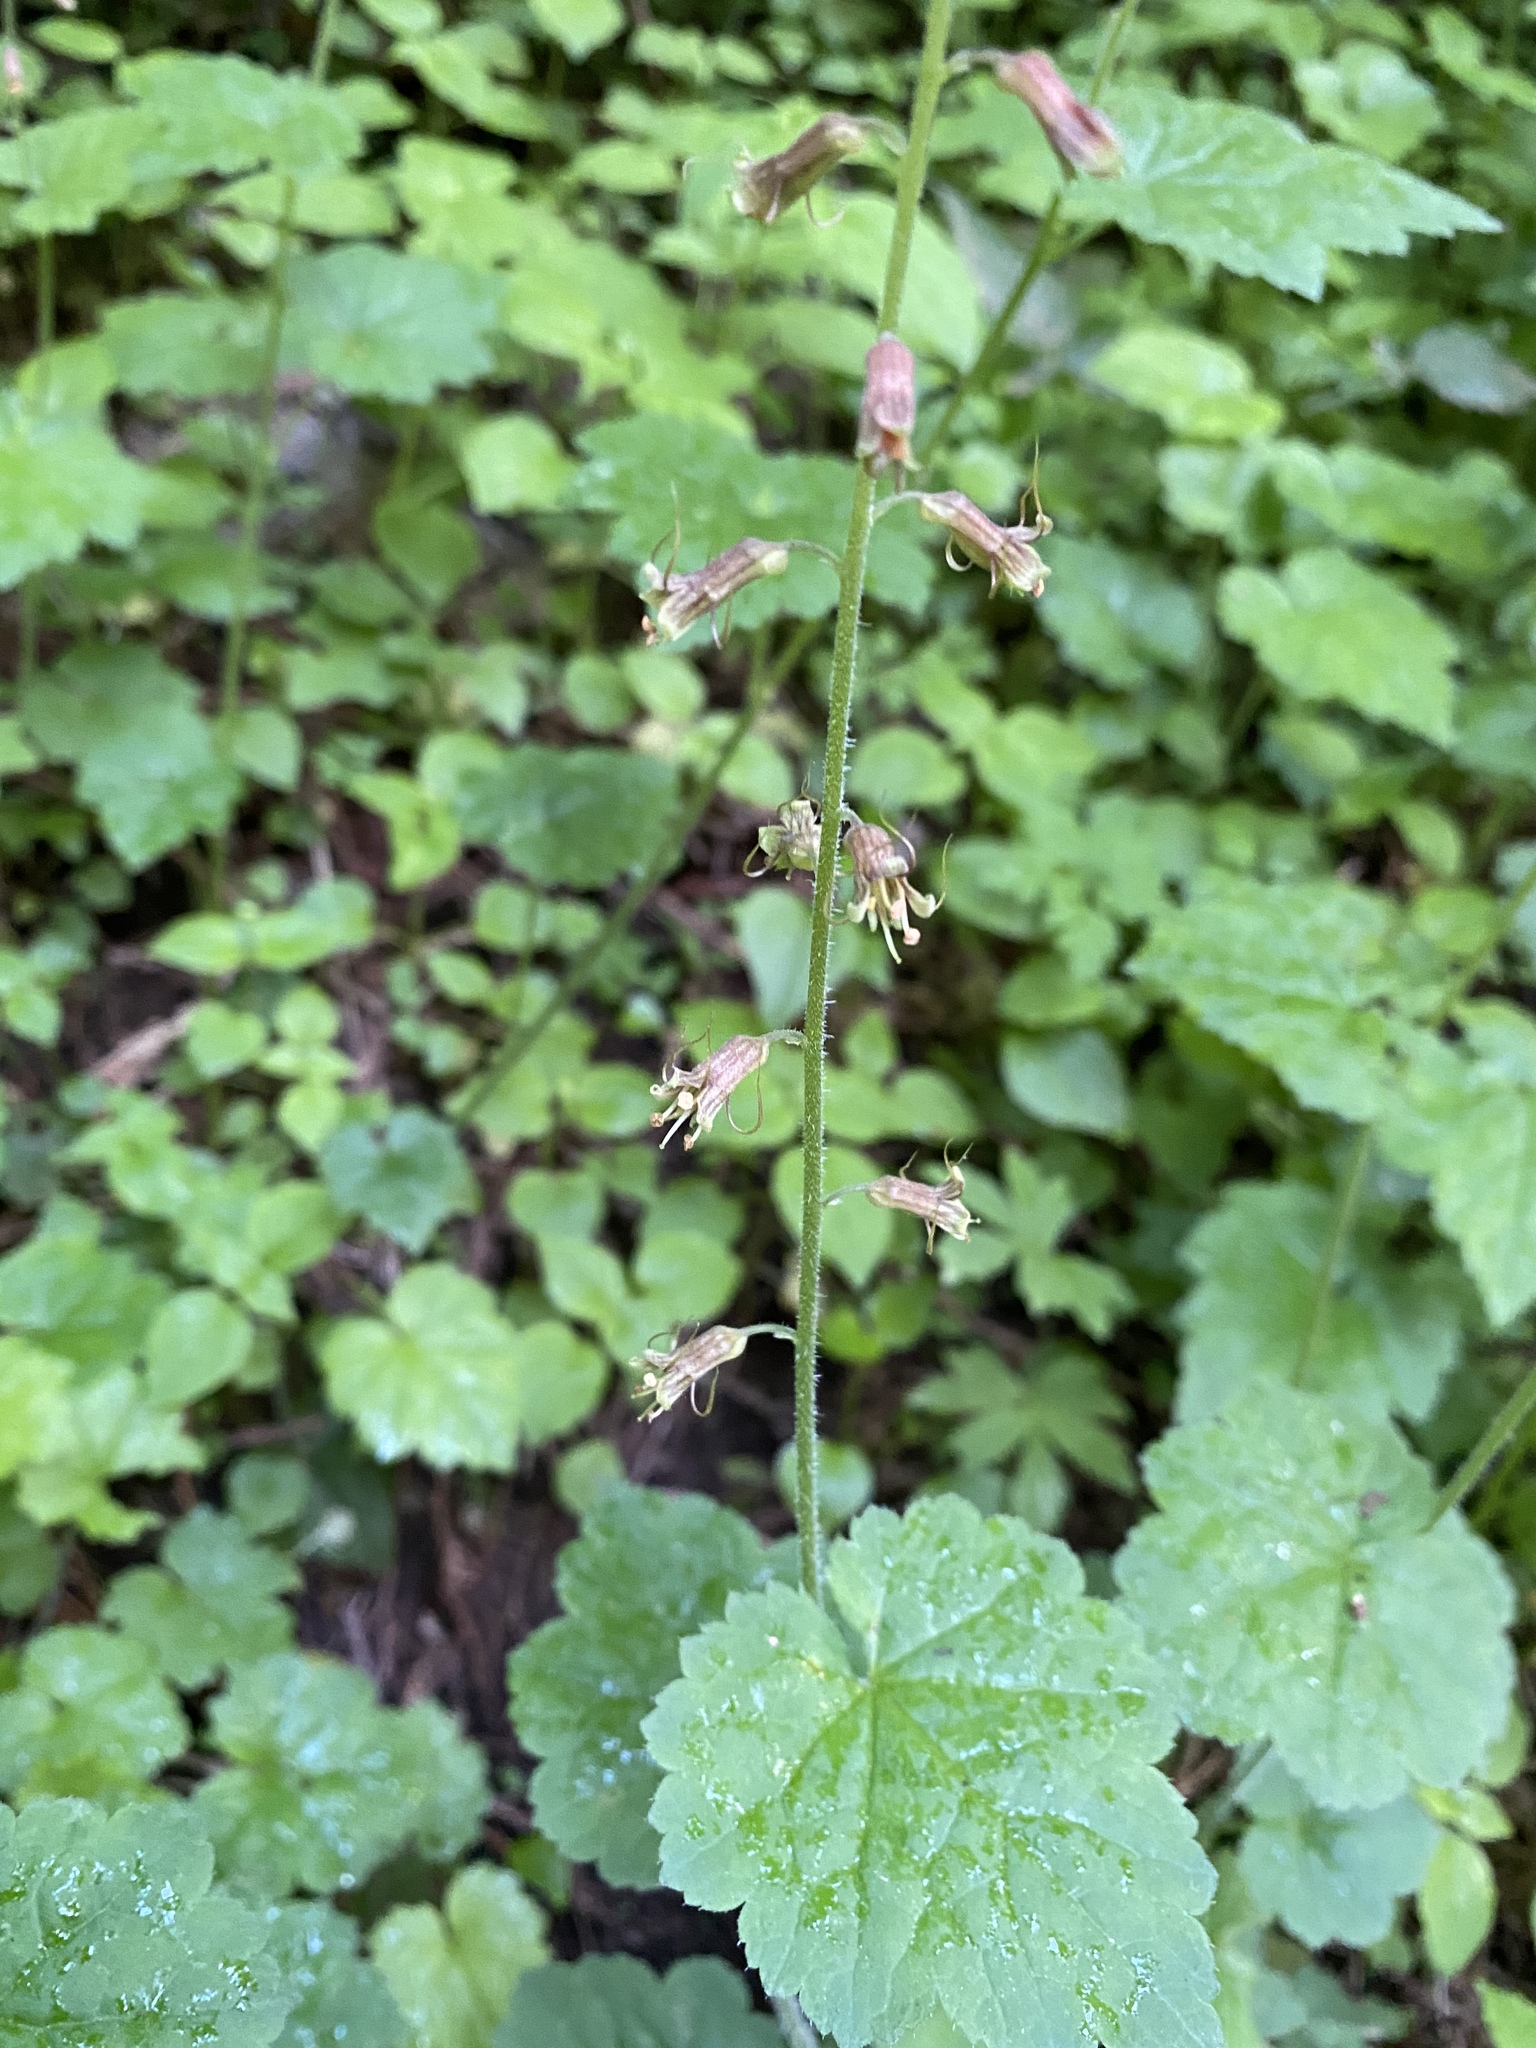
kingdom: Plantae
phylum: Tracheophyta
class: Magnoliopsida
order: Saxifragales
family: Saxifragaceae
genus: Tolmiea
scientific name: Tolmiea menziesii
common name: Pick-a-back-plant
